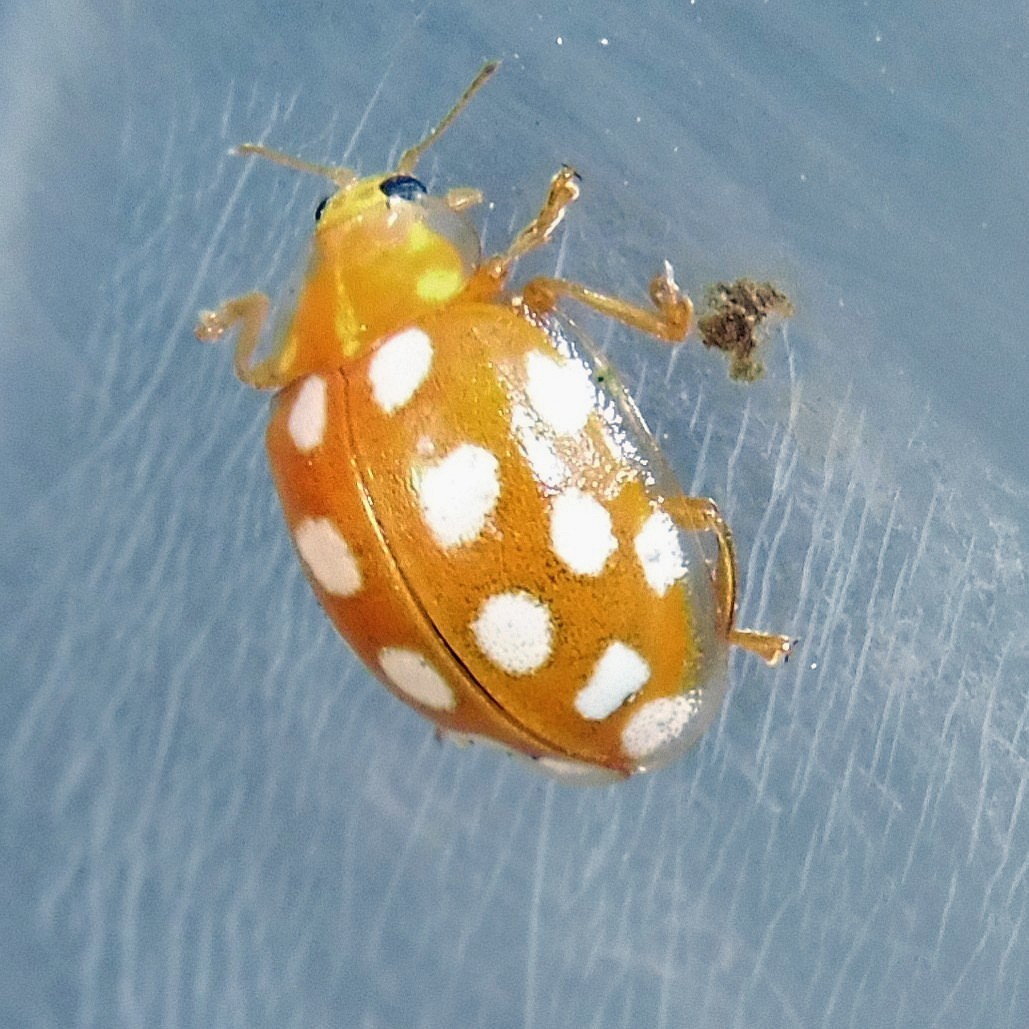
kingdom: Animalia
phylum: Arthropoda
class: Insecta
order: Coleoptera
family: Coccinellidae
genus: Halyzia
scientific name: Halyzia sedecimguttata
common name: Orange ladybird
